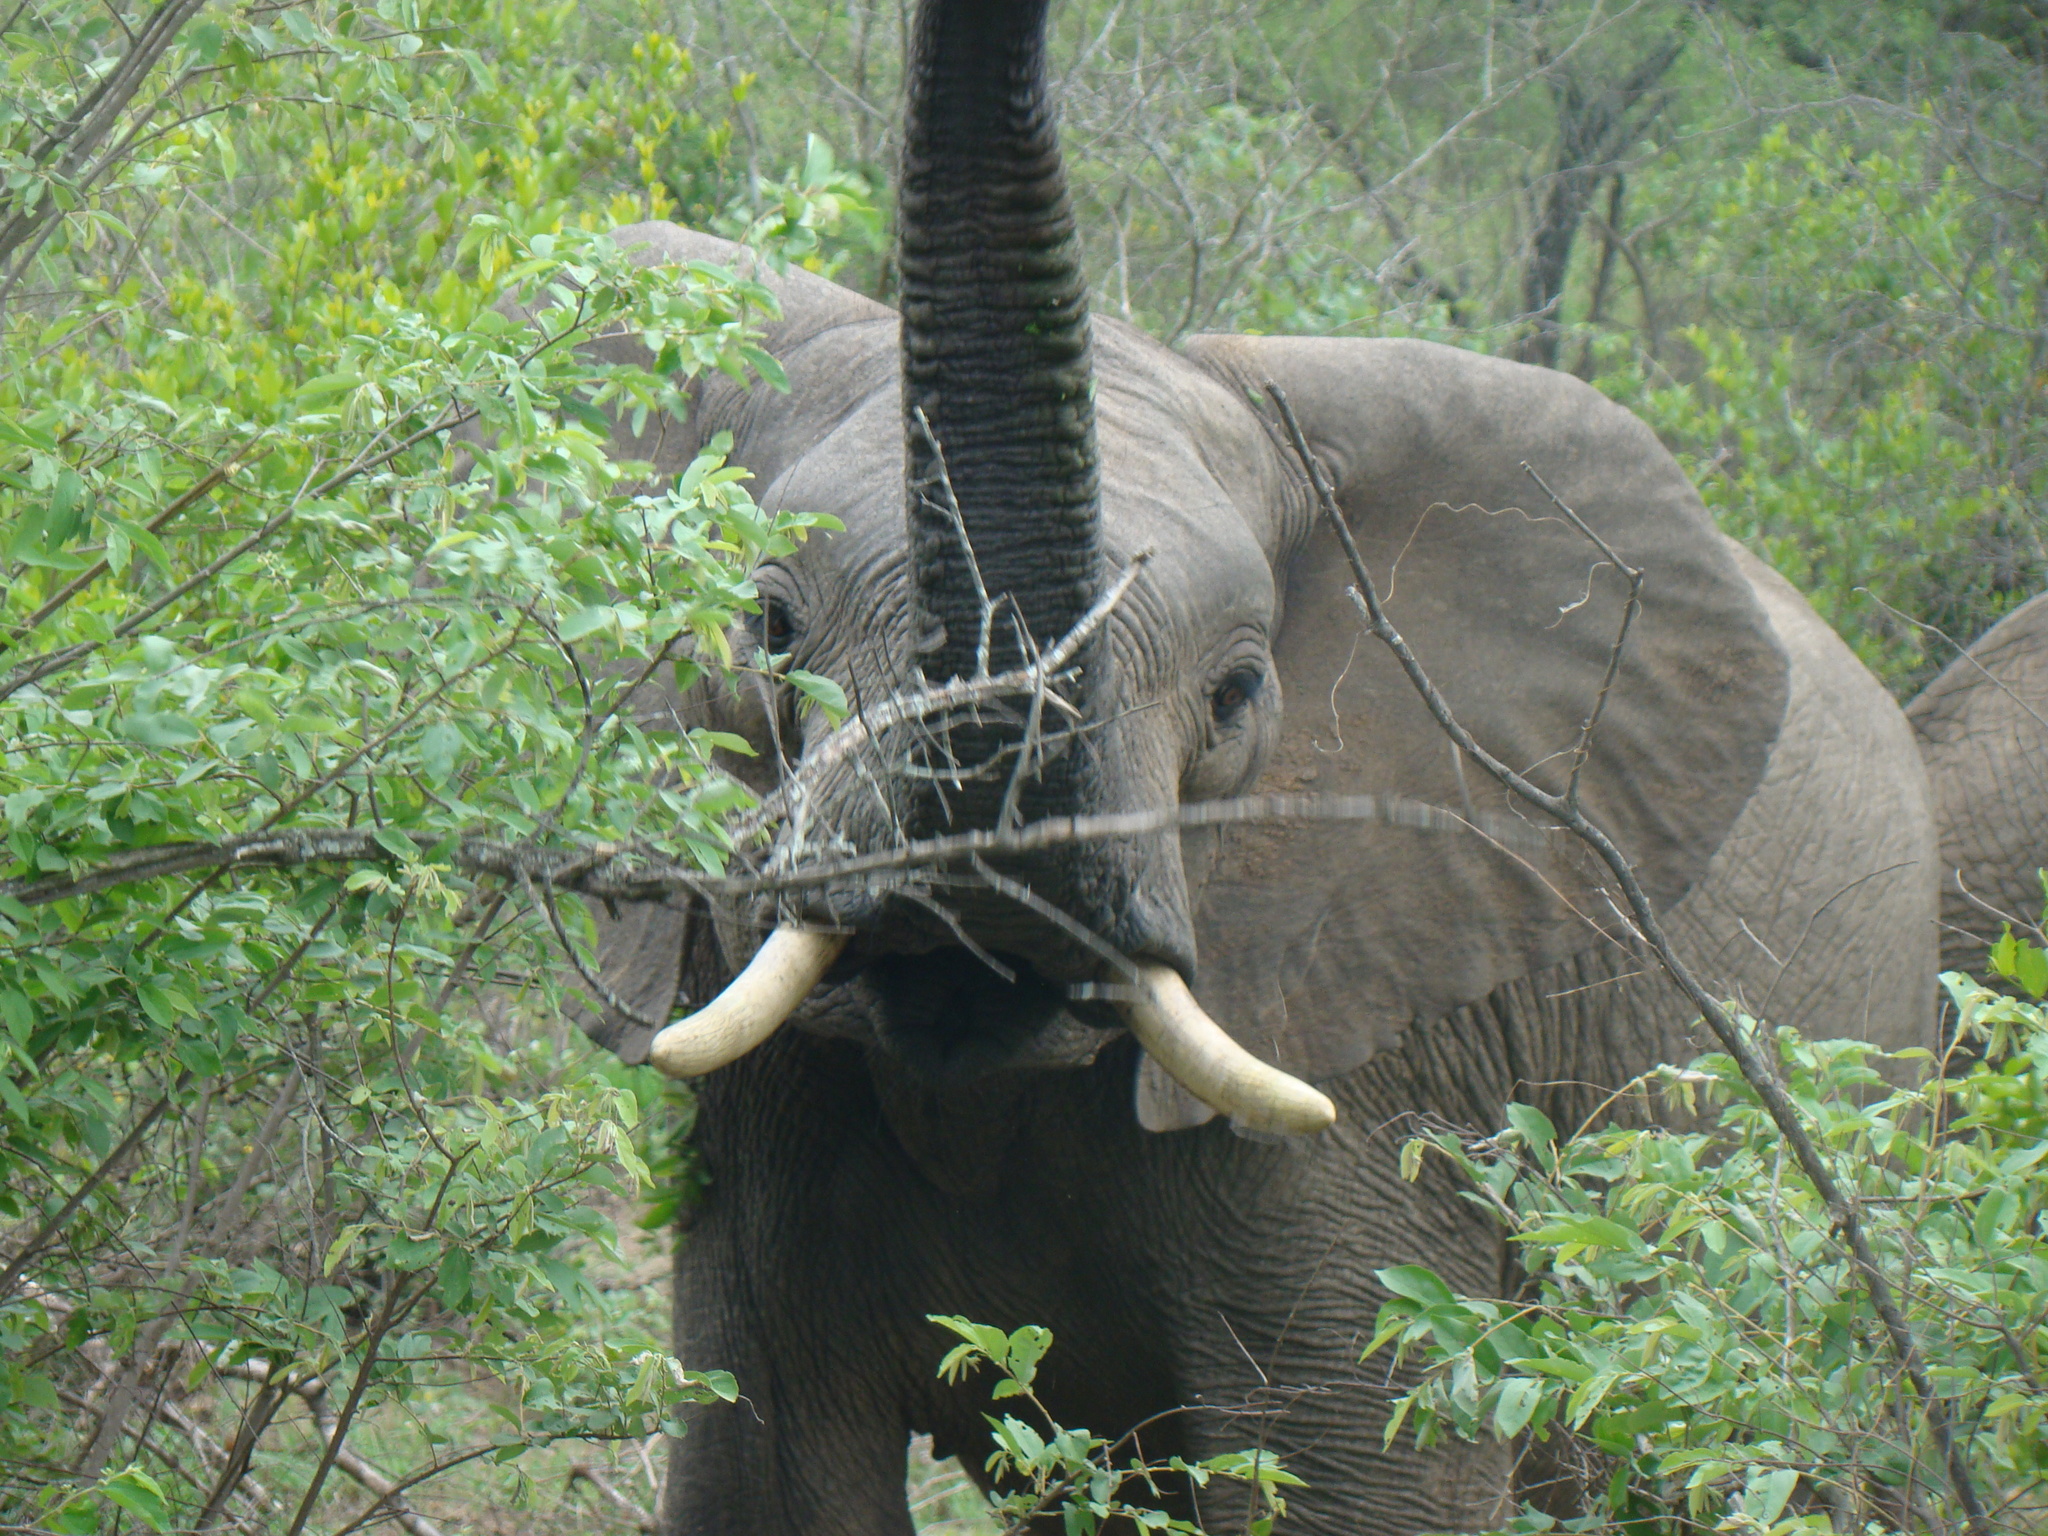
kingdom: Animalia
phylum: Chordata
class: Mammalia
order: Proboscidea
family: Elephantidae
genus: Loxodonta
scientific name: Loxodonta africana
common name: African elephant
